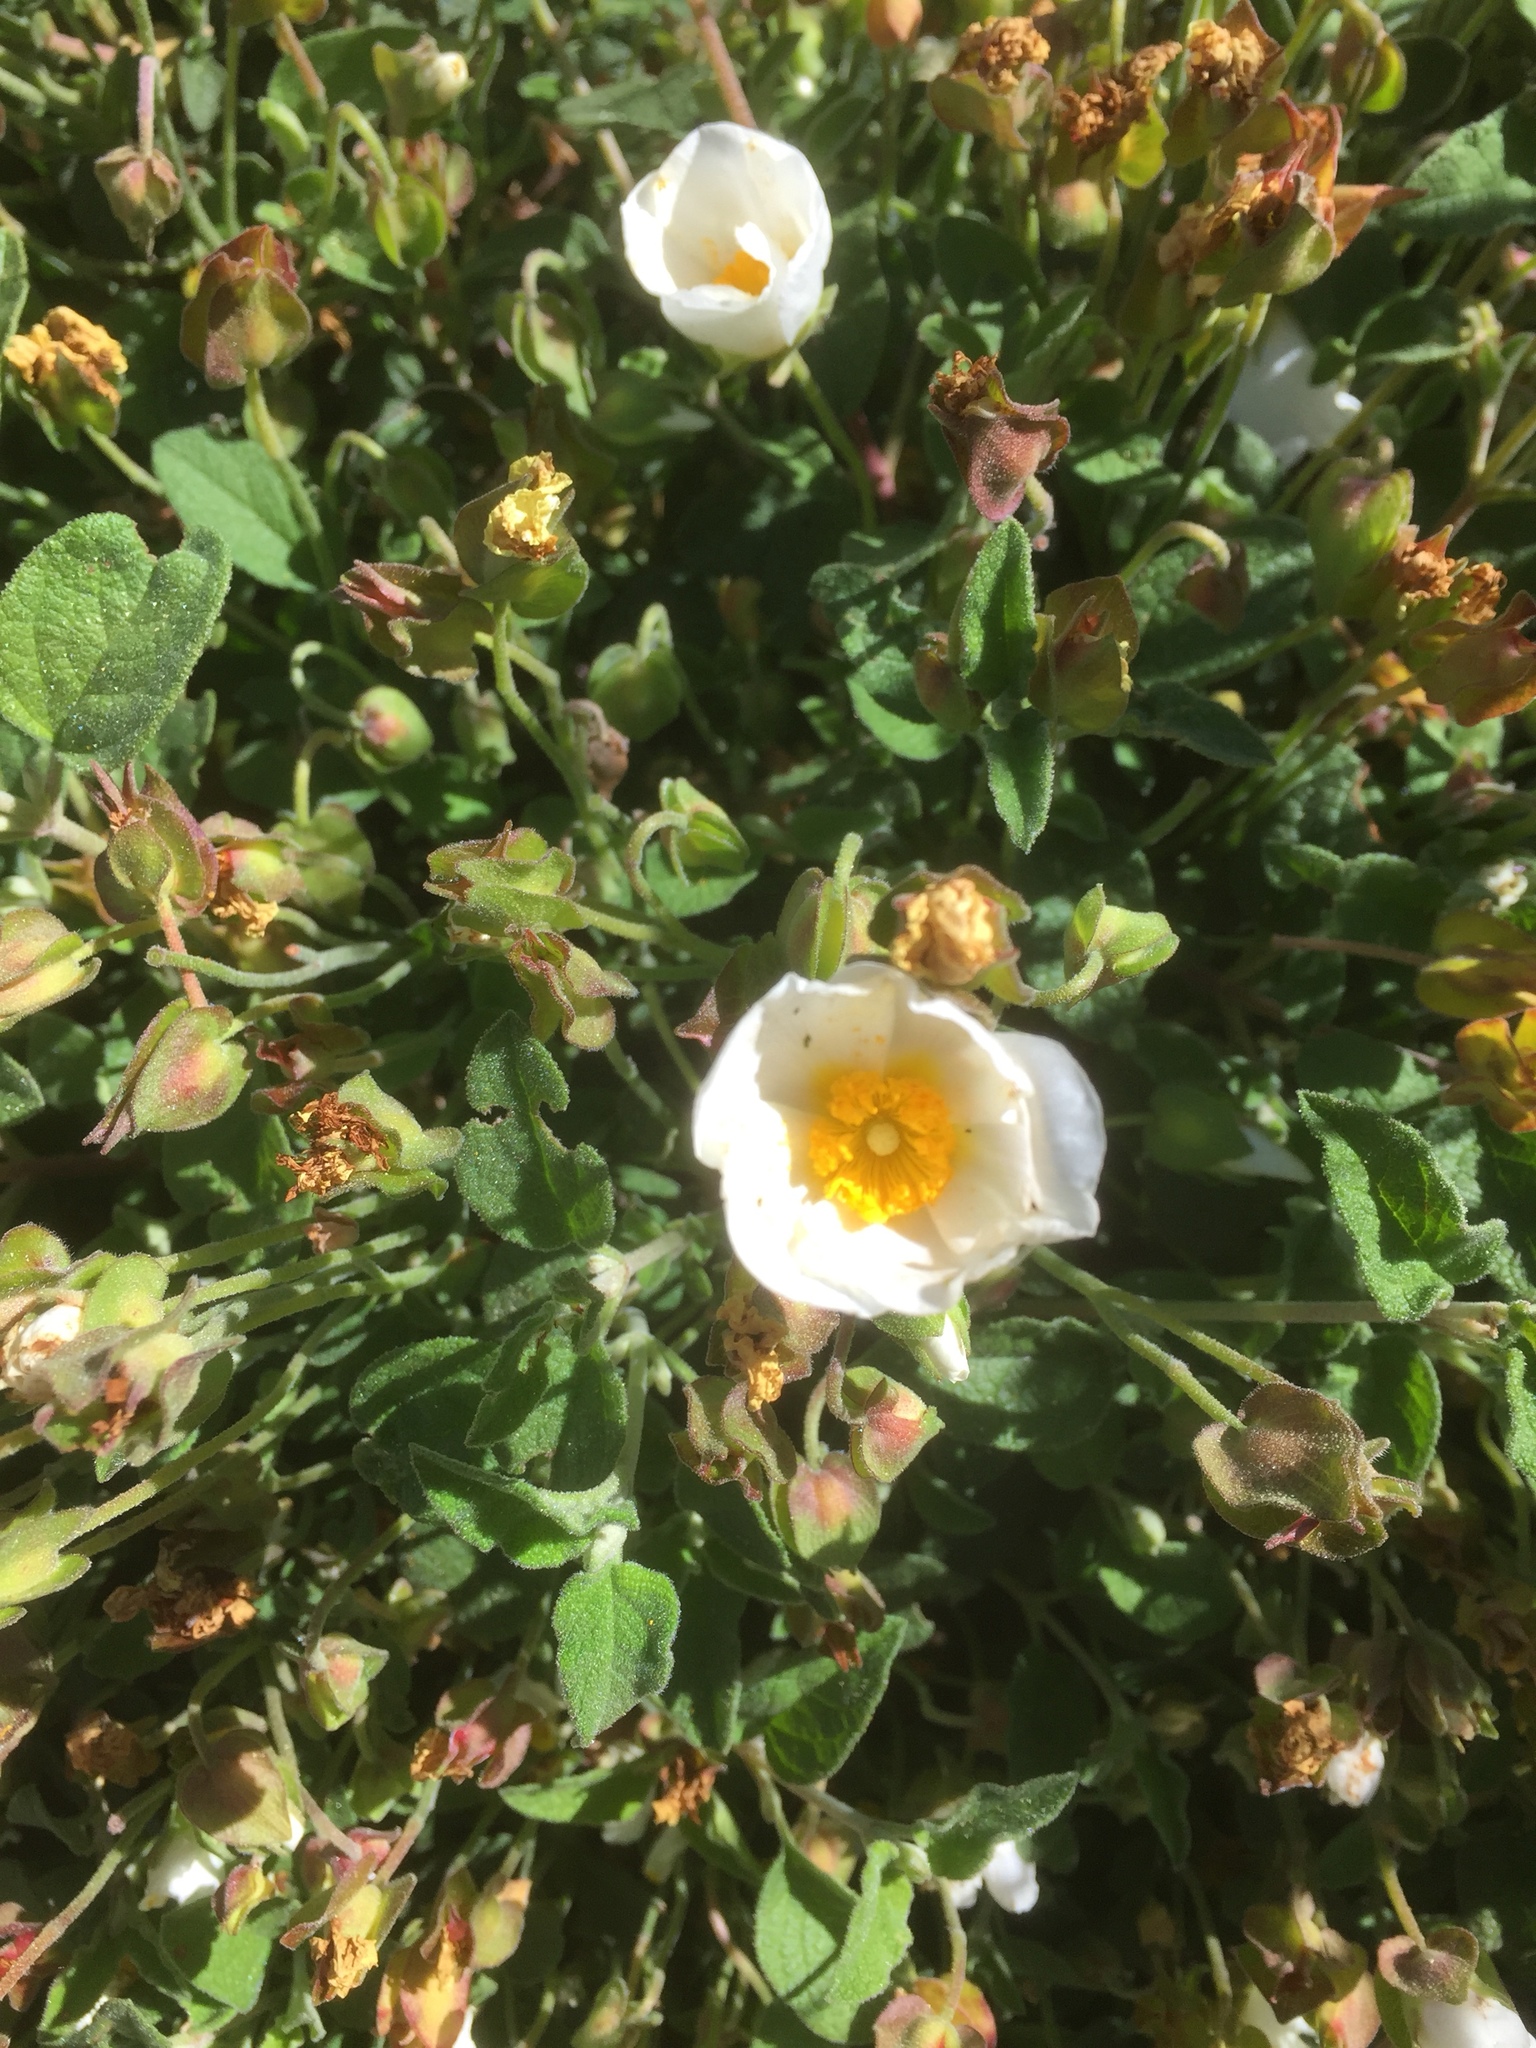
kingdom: Plantae
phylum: Tracheophyta
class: Magnoliopsida
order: Malvales
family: Cistaceae
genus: Cistus
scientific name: Cistus salviifolius
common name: Salvia cistus
